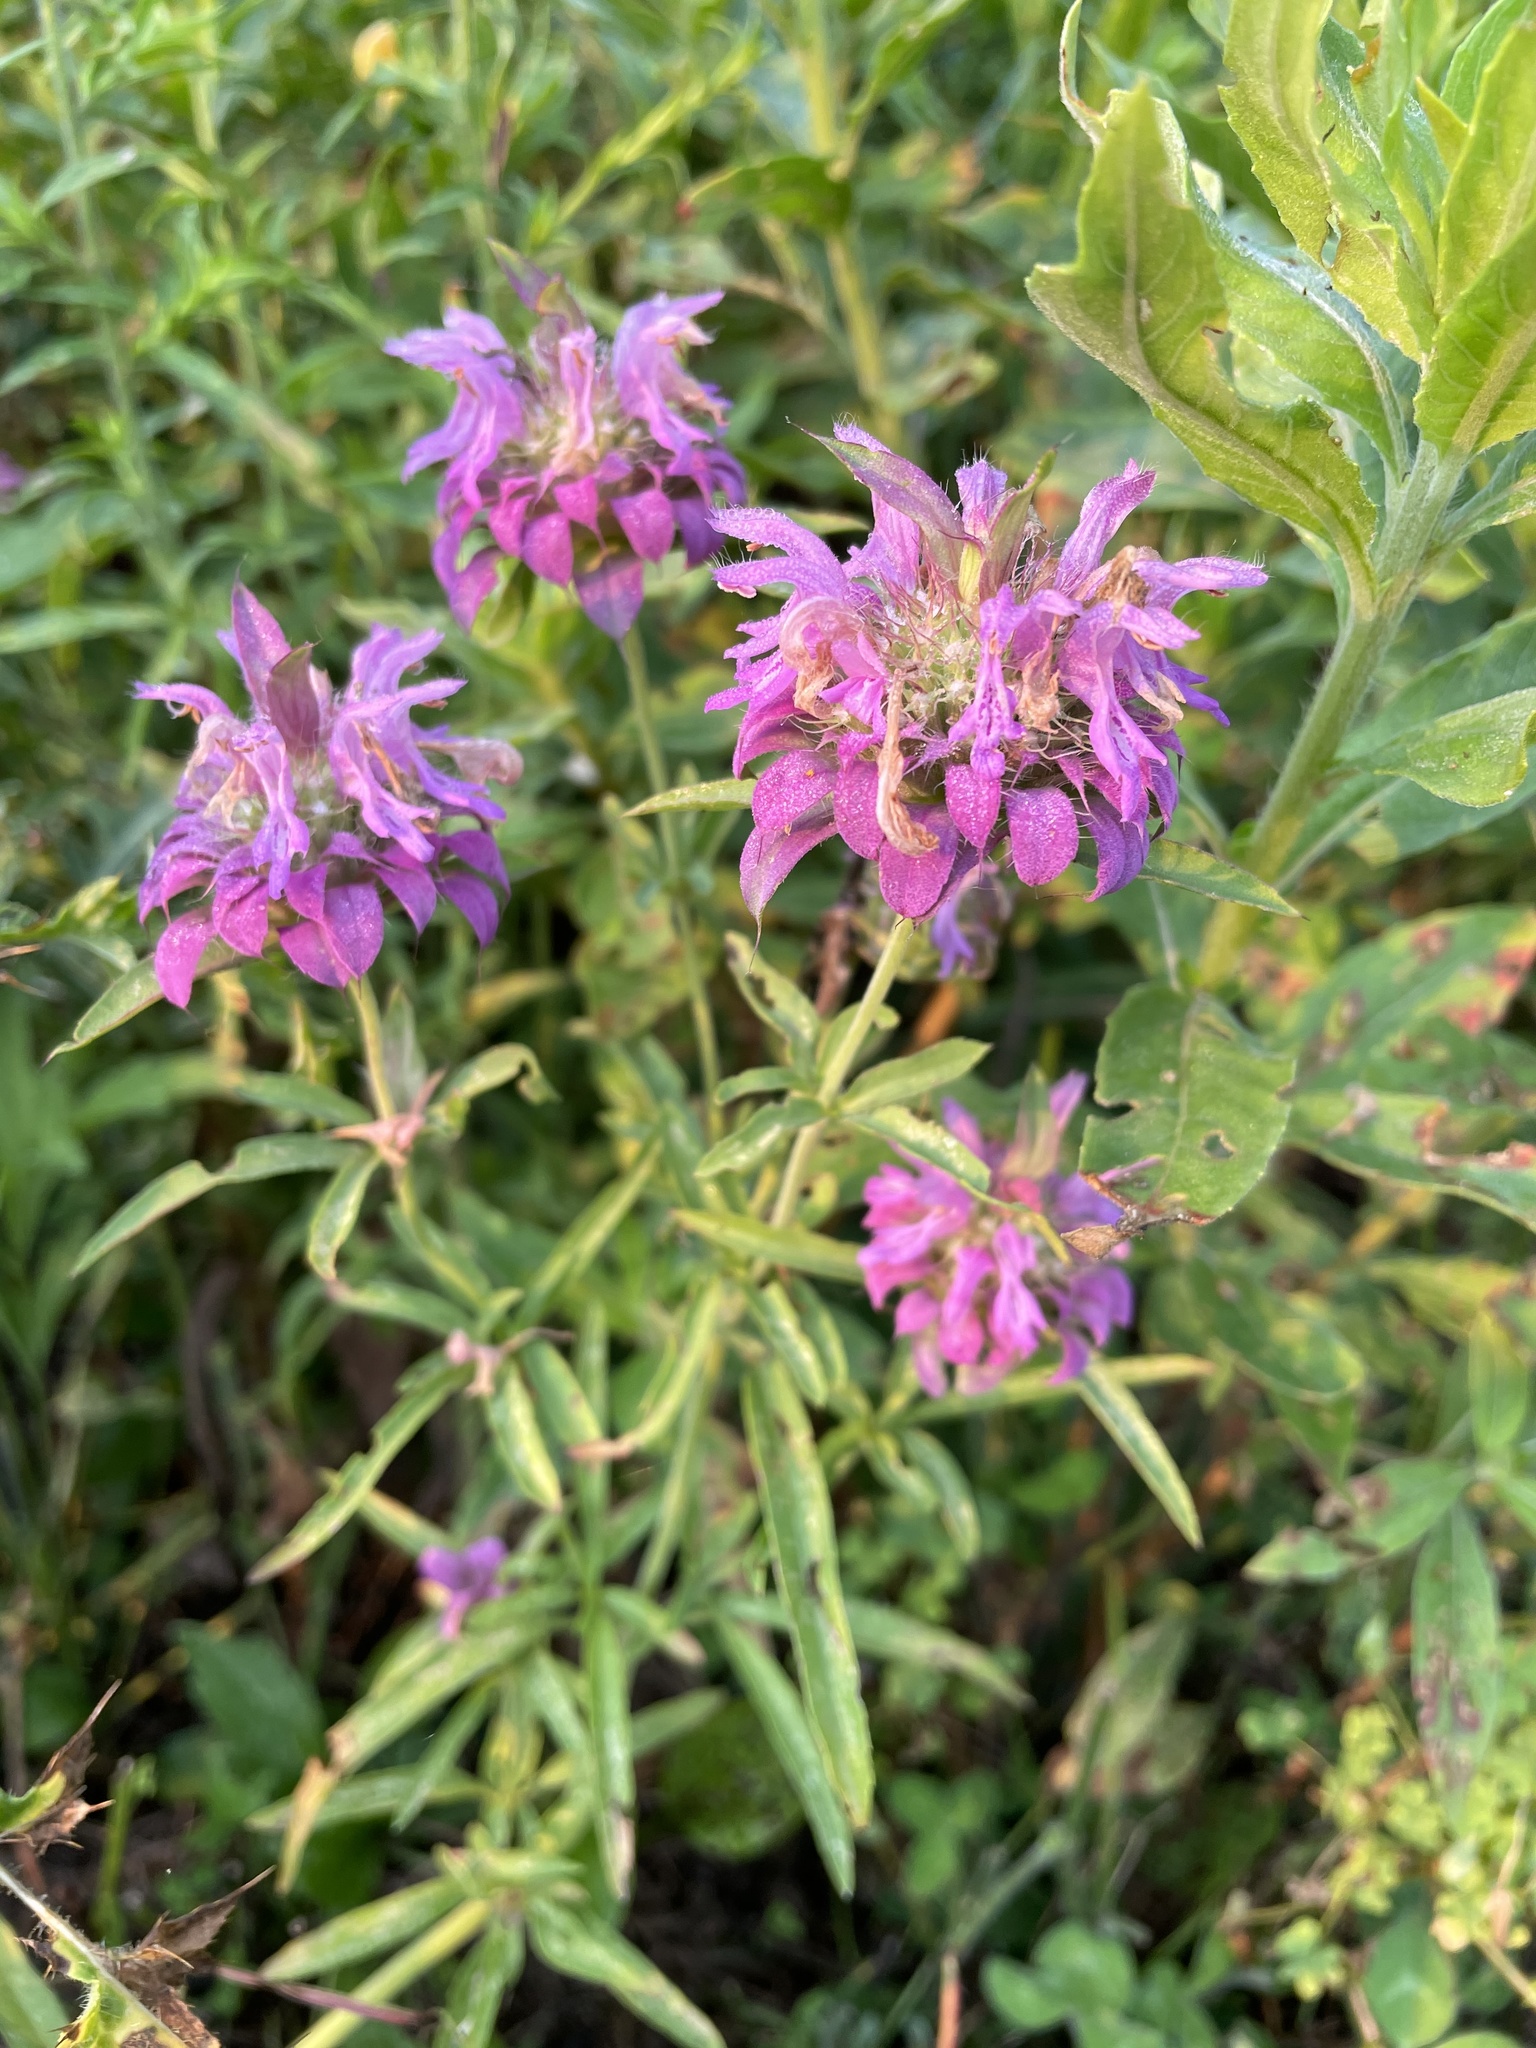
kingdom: Plantae
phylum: Tracheophyta
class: Magnoliopsida
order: Lamiales
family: Lamiaceae
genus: Monarda
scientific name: Monarda citriodora
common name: Lemon beebalm
